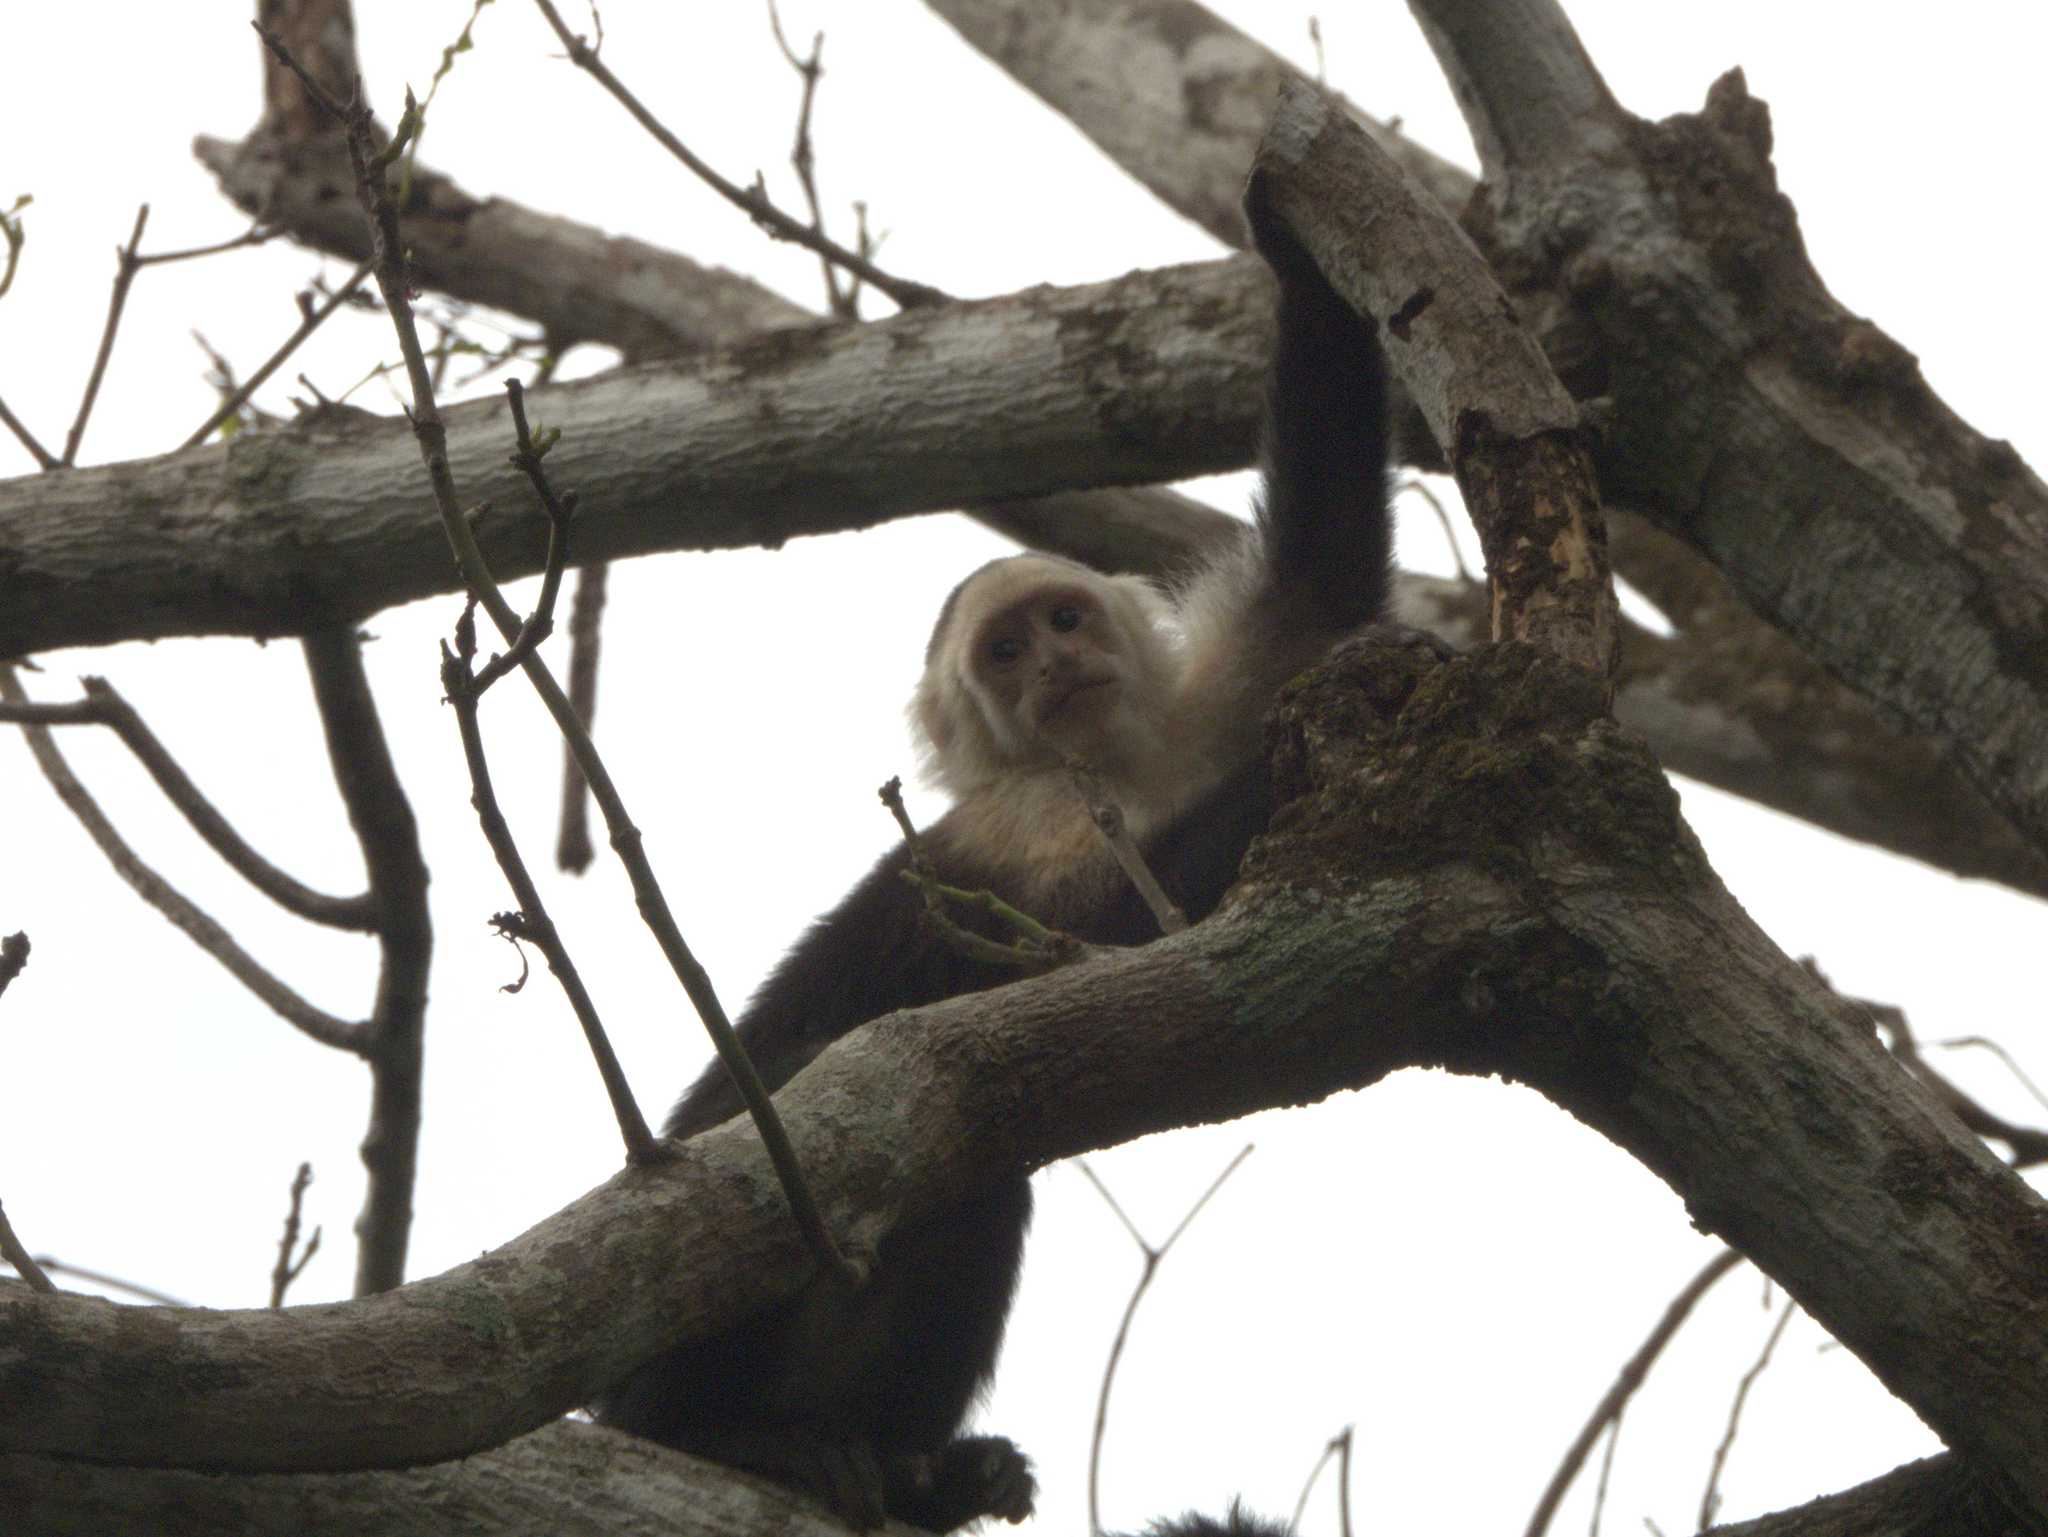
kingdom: Animalia
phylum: Chordata
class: Mammalia
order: Primates
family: Cebidae
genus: Cebus
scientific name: Cebus imitator
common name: Panamanian white-faced capuchin
